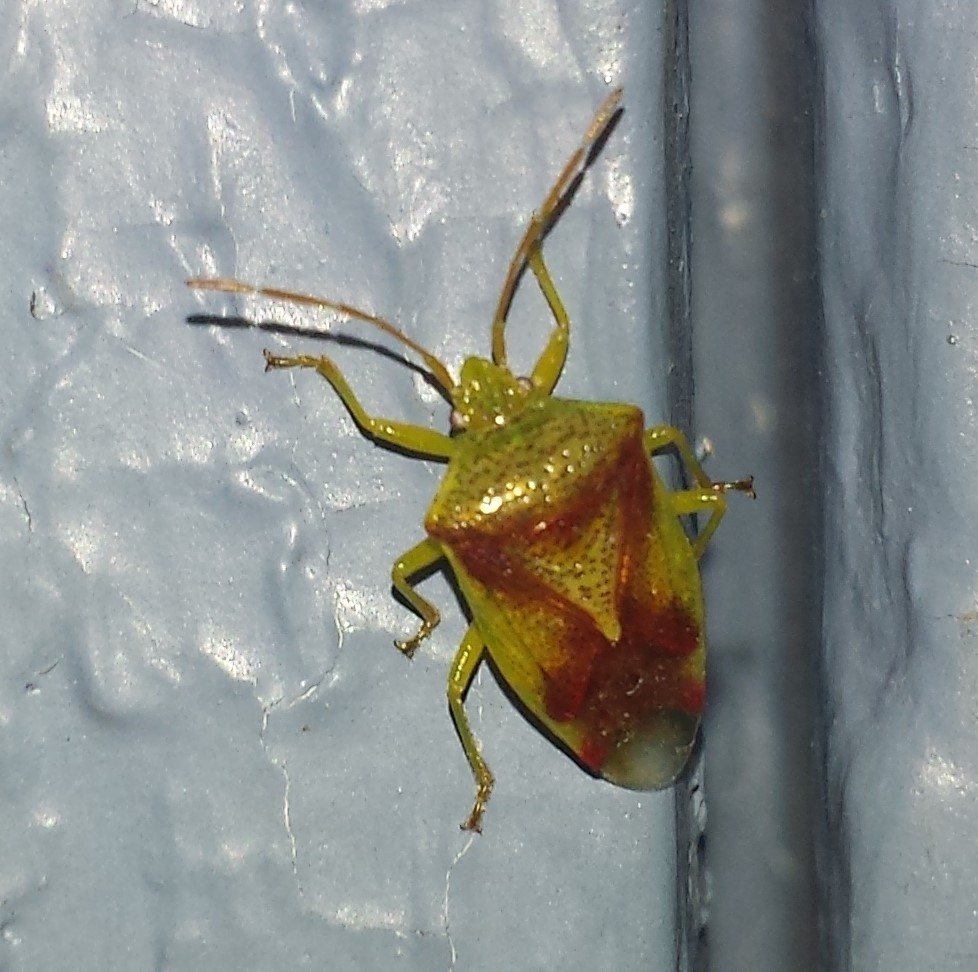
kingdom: Animalia
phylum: Arthropoda
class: Insecta
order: Hemiptera
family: Acanthosomatidae
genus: Elasmostethus
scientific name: Elasmostethus cruciatus
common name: Red-cross shield bug
